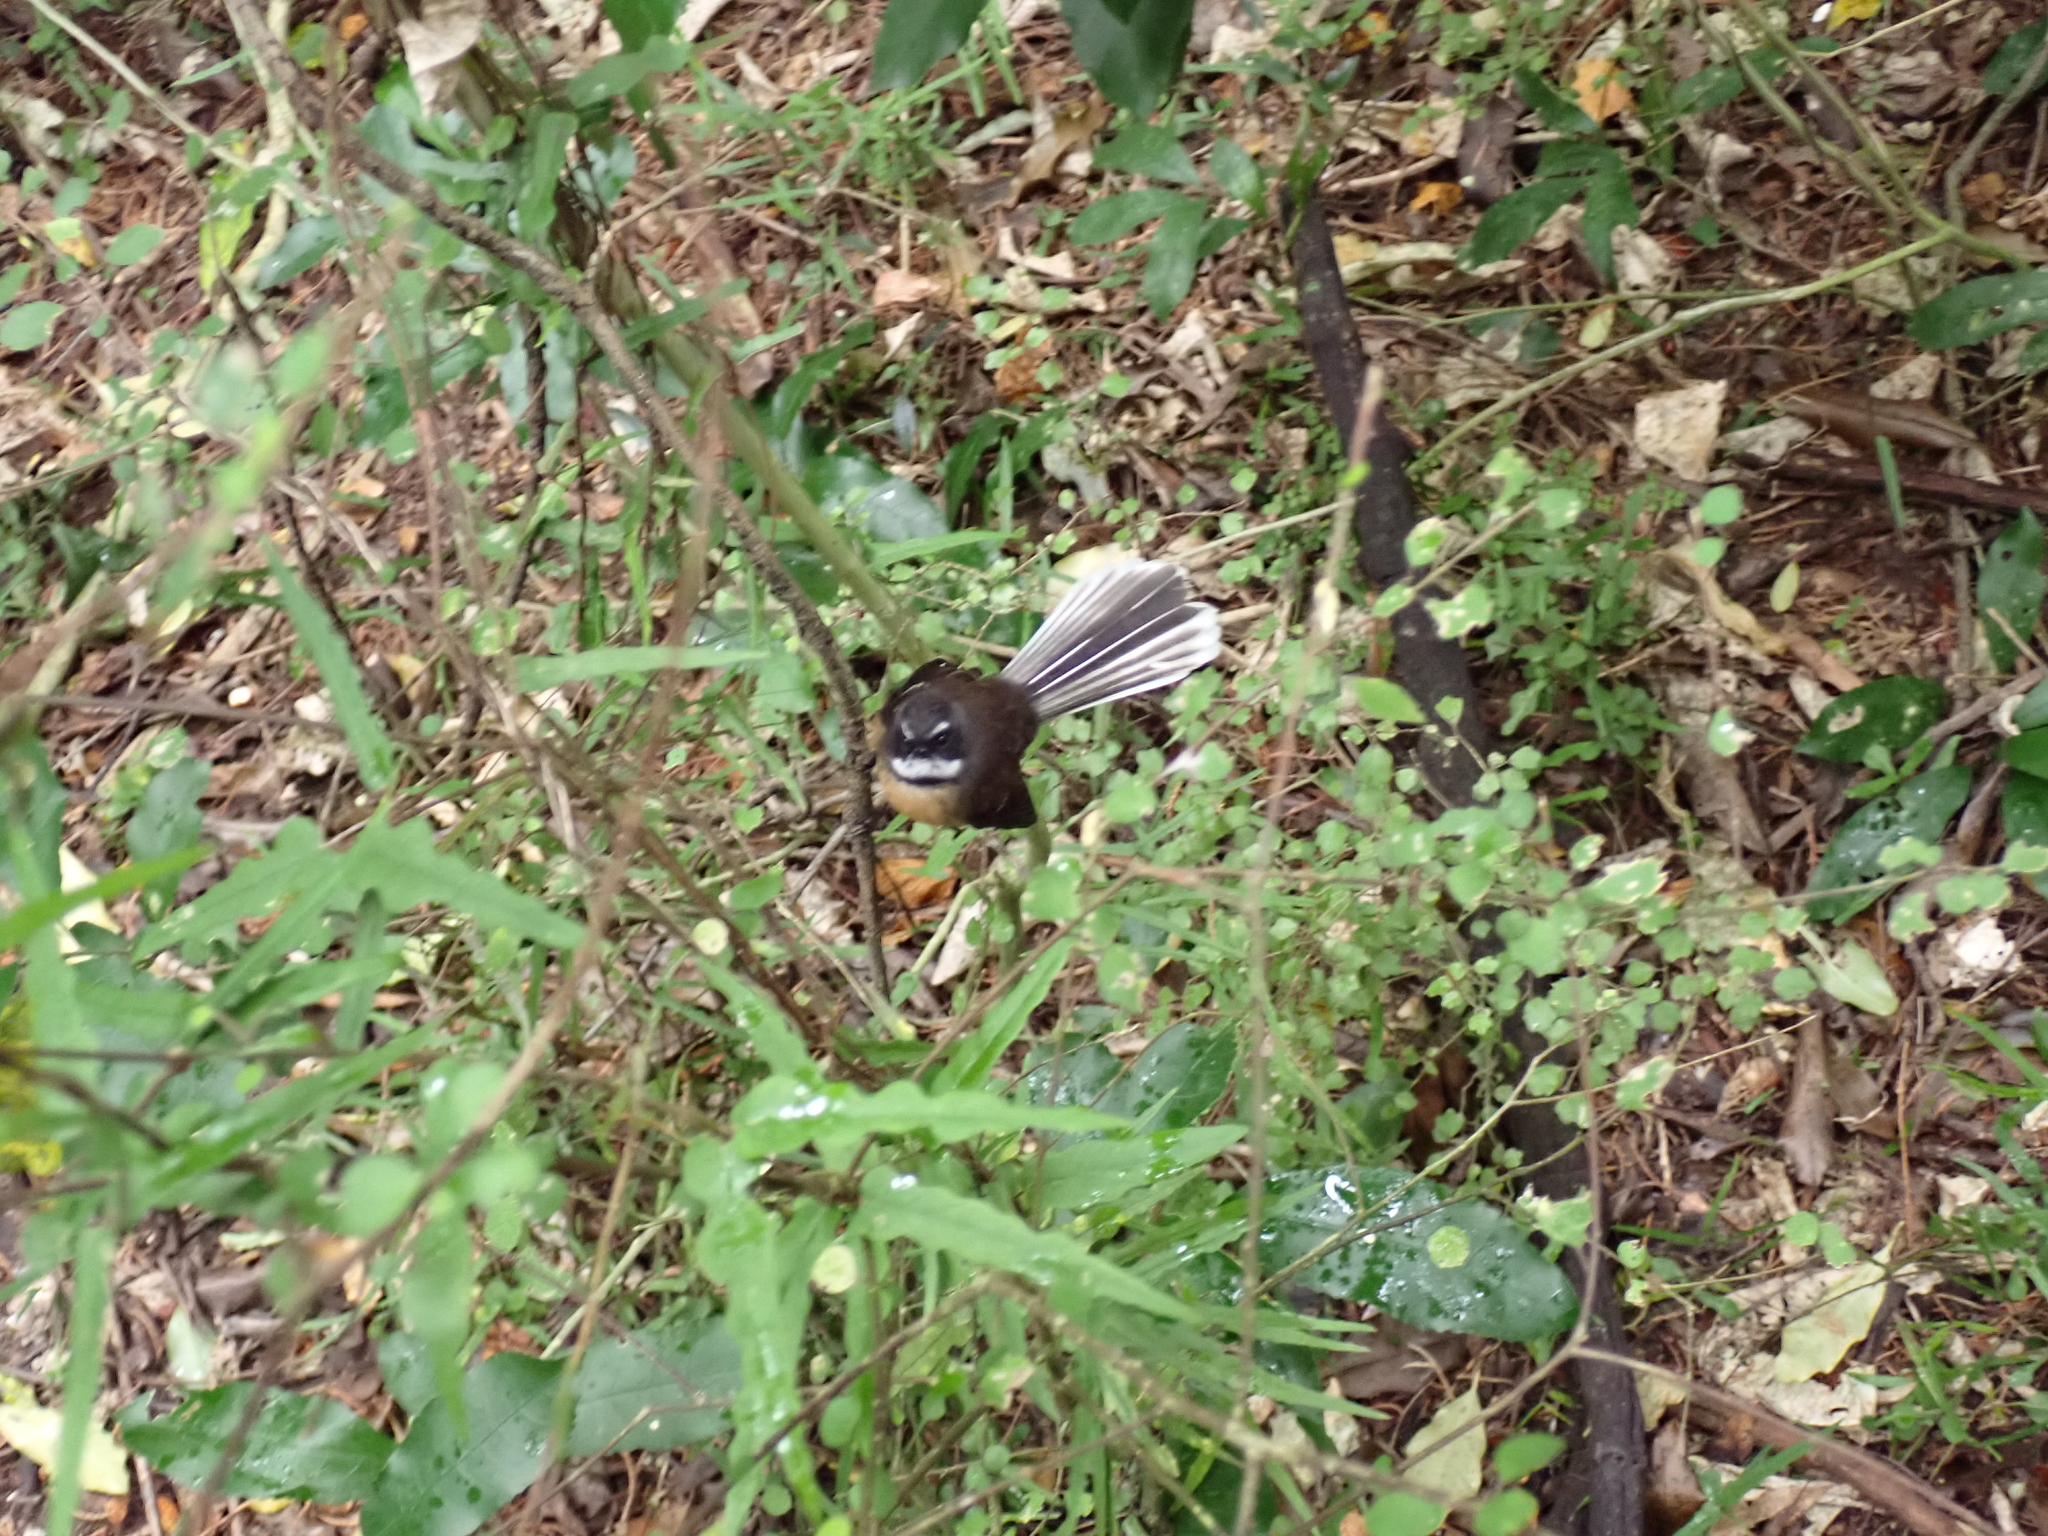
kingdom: Animalia
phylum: Chordata
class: Aves
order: Passeriformes
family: Rhipiduridae
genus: Rhipidura
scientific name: Rhipidura fuliginosa
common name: New zealand fantail
